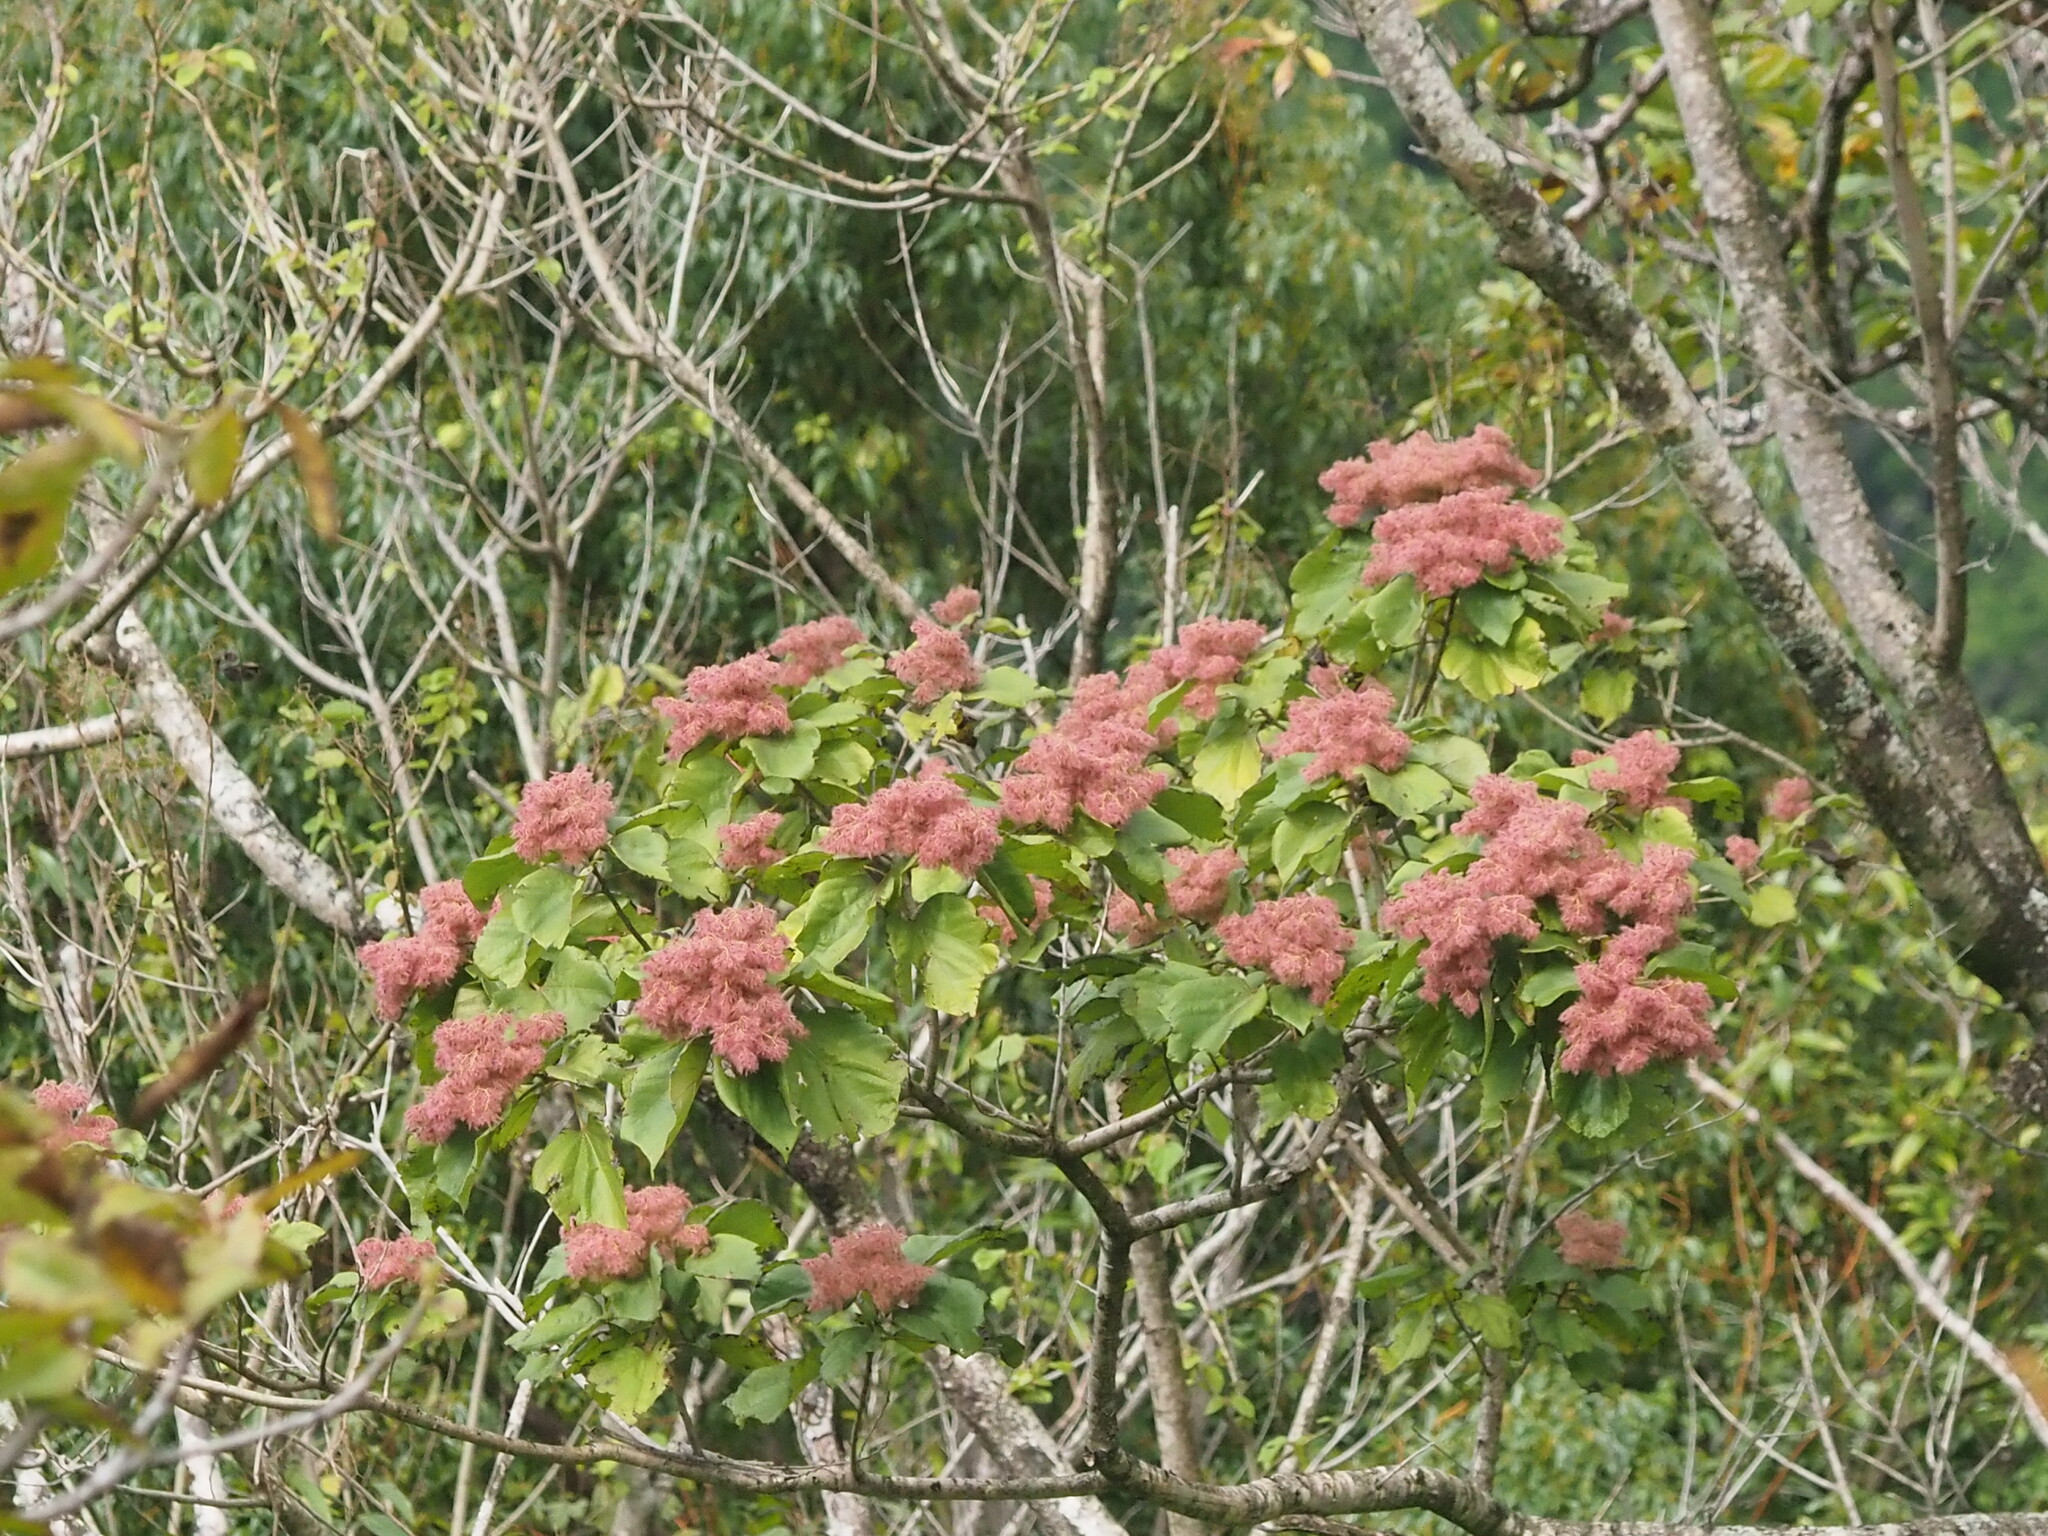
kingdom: Plantae
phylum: Tracheophyta
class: Magnoliopsida
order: Malvales
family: Malvaceae
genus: Heliocarpus
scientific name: Heliocarpus americanus
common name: White moho
